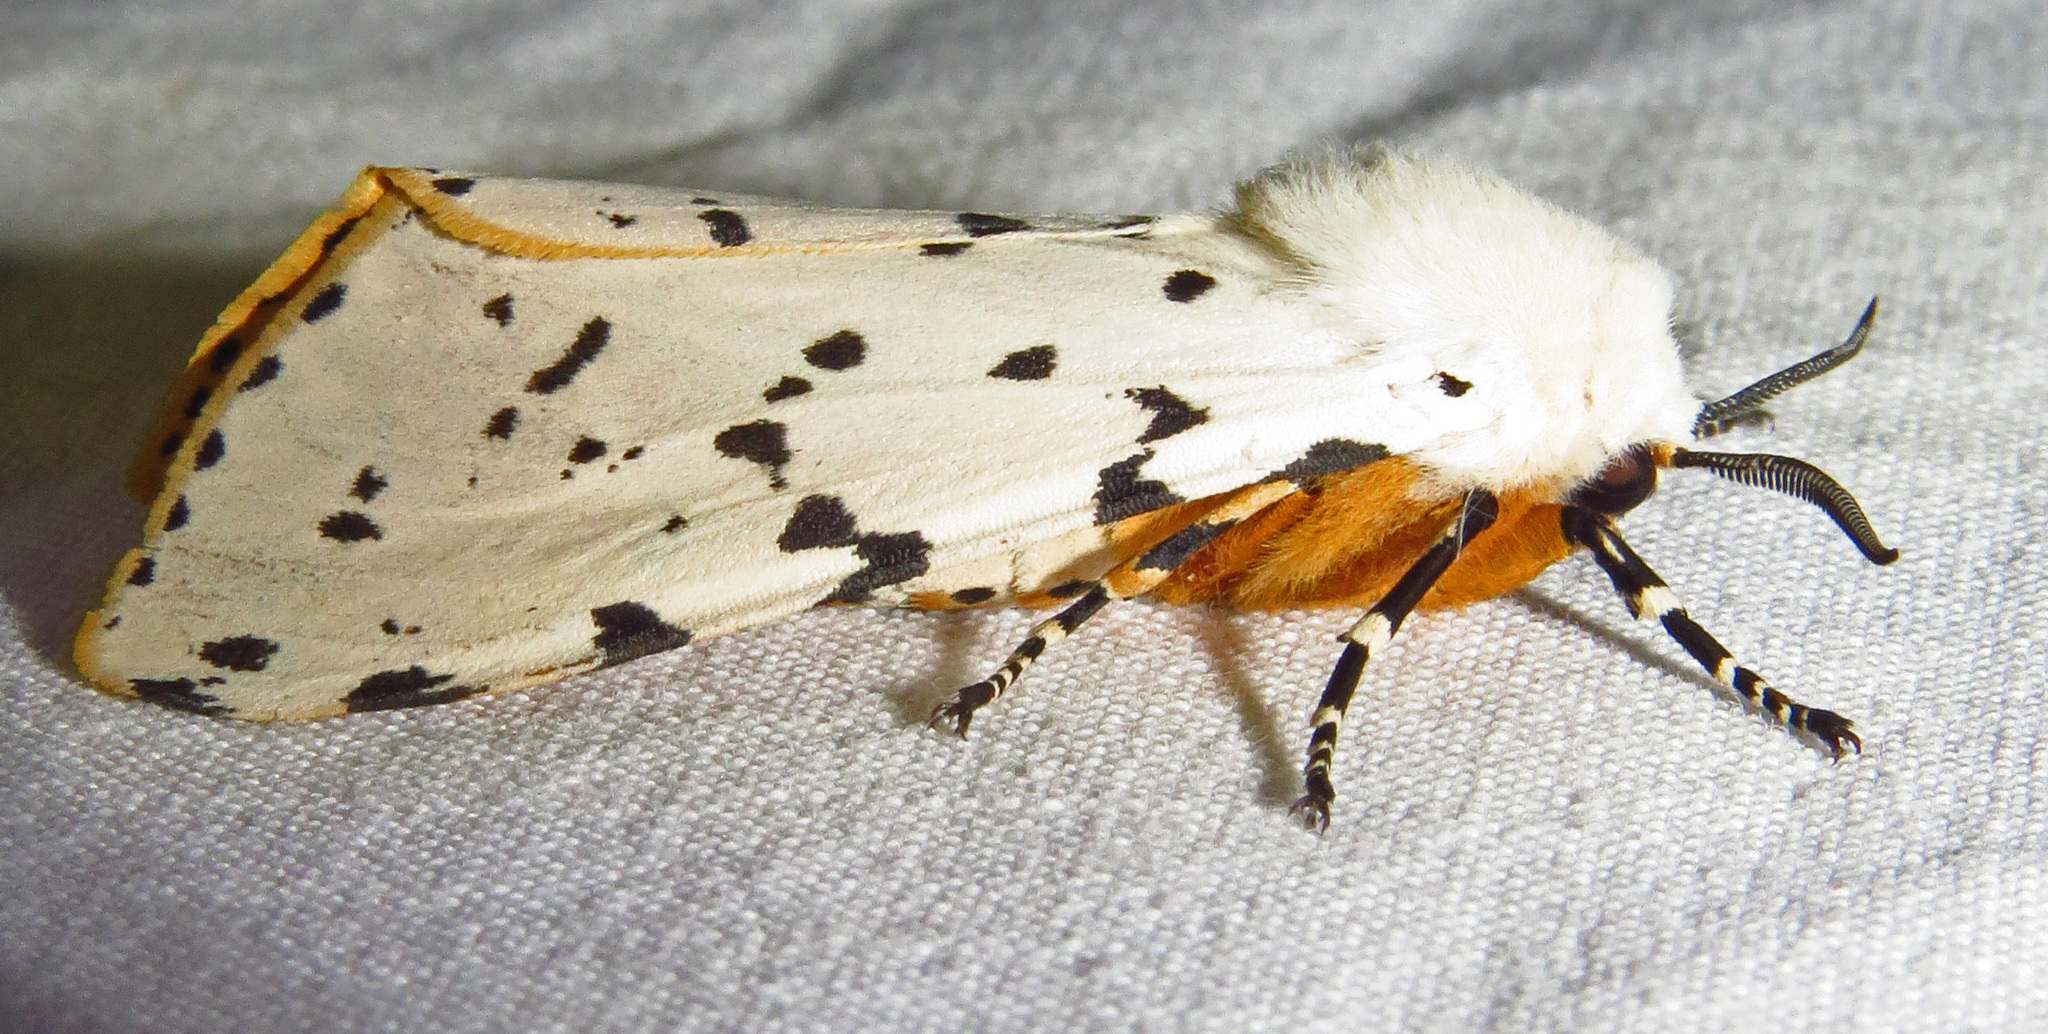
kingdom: Animalia
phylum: Arthropoda
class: Insecta
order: Lepidoptera
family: Erebidae
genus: Estigmene
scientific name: Estigmene acrea
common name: Salt marsh moth
